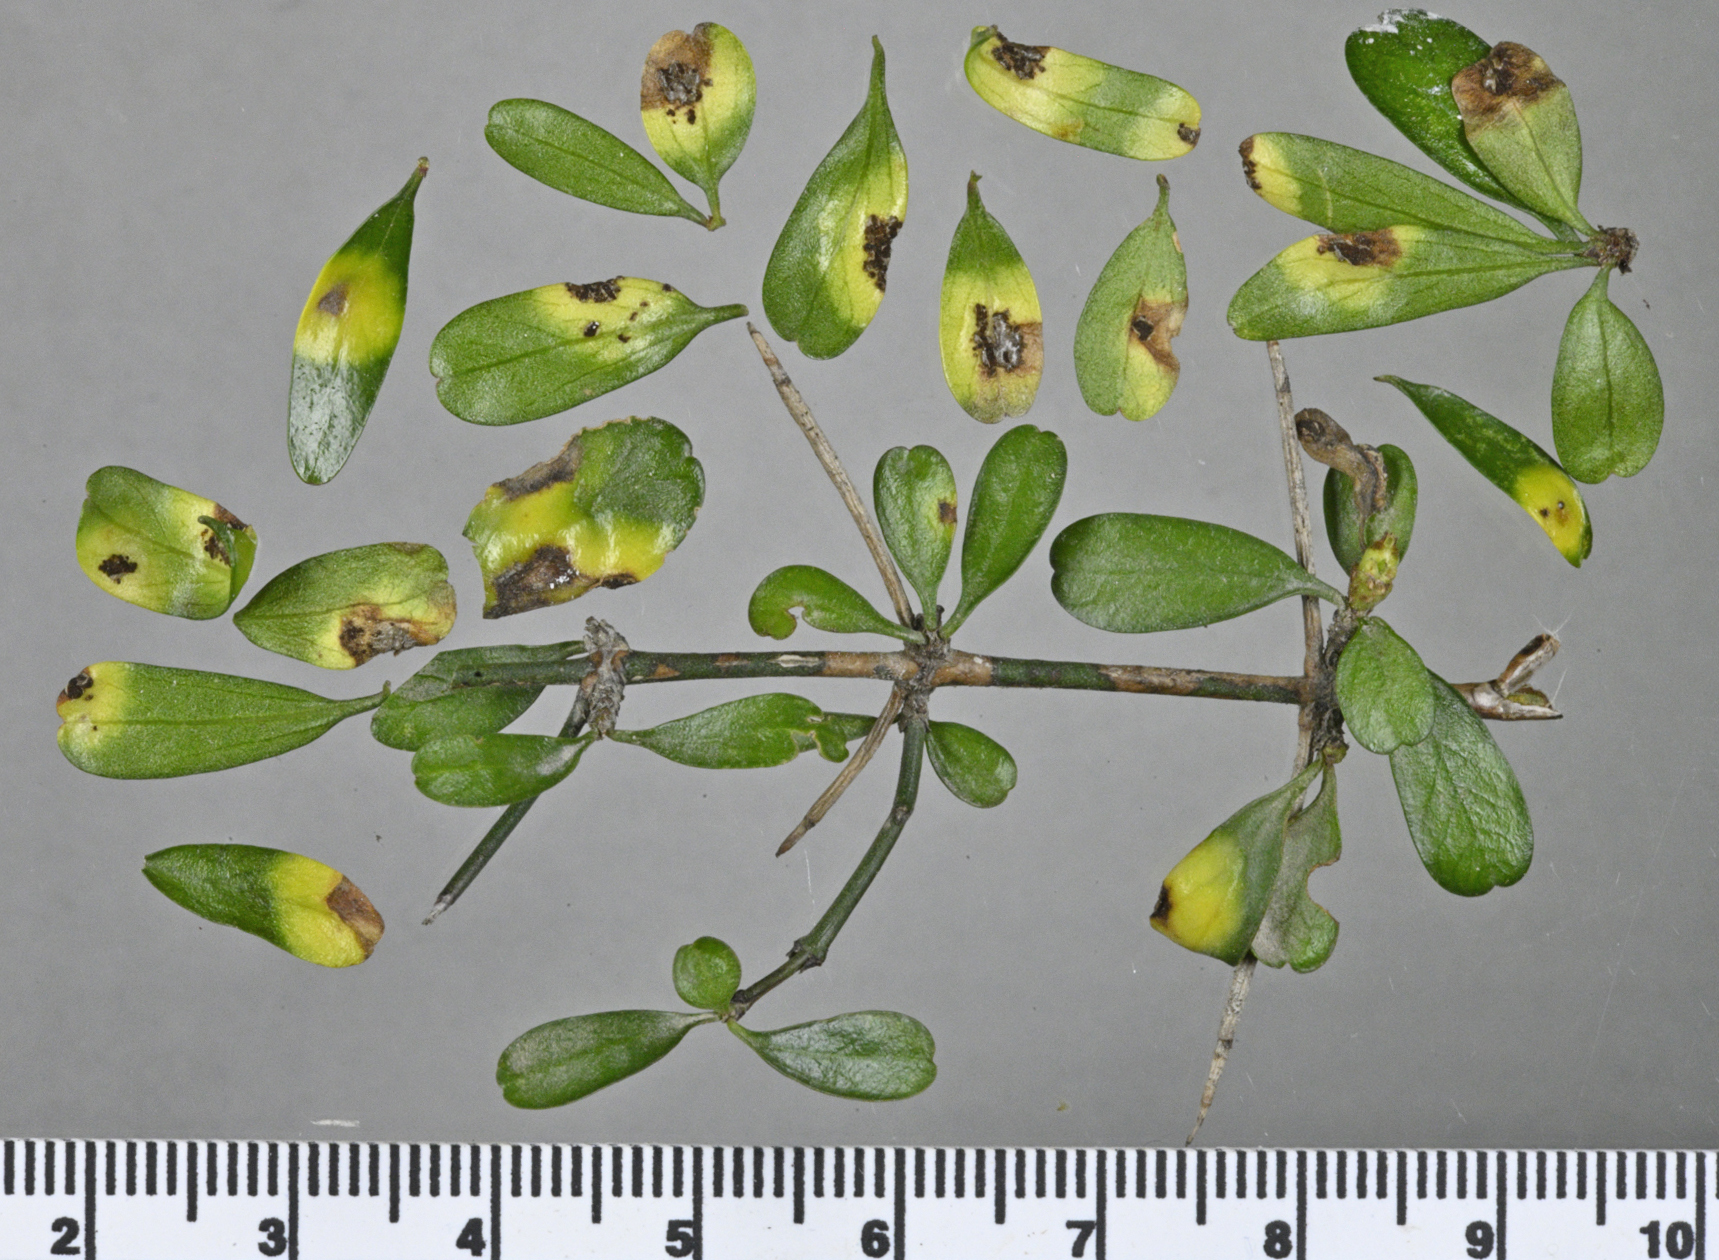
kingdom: Fungi
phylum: Basidiomycota
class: Pucciniomycetes
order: Pucciniales
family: Pucciniaceae
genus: Uromyces
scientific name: Uromyces discariae
